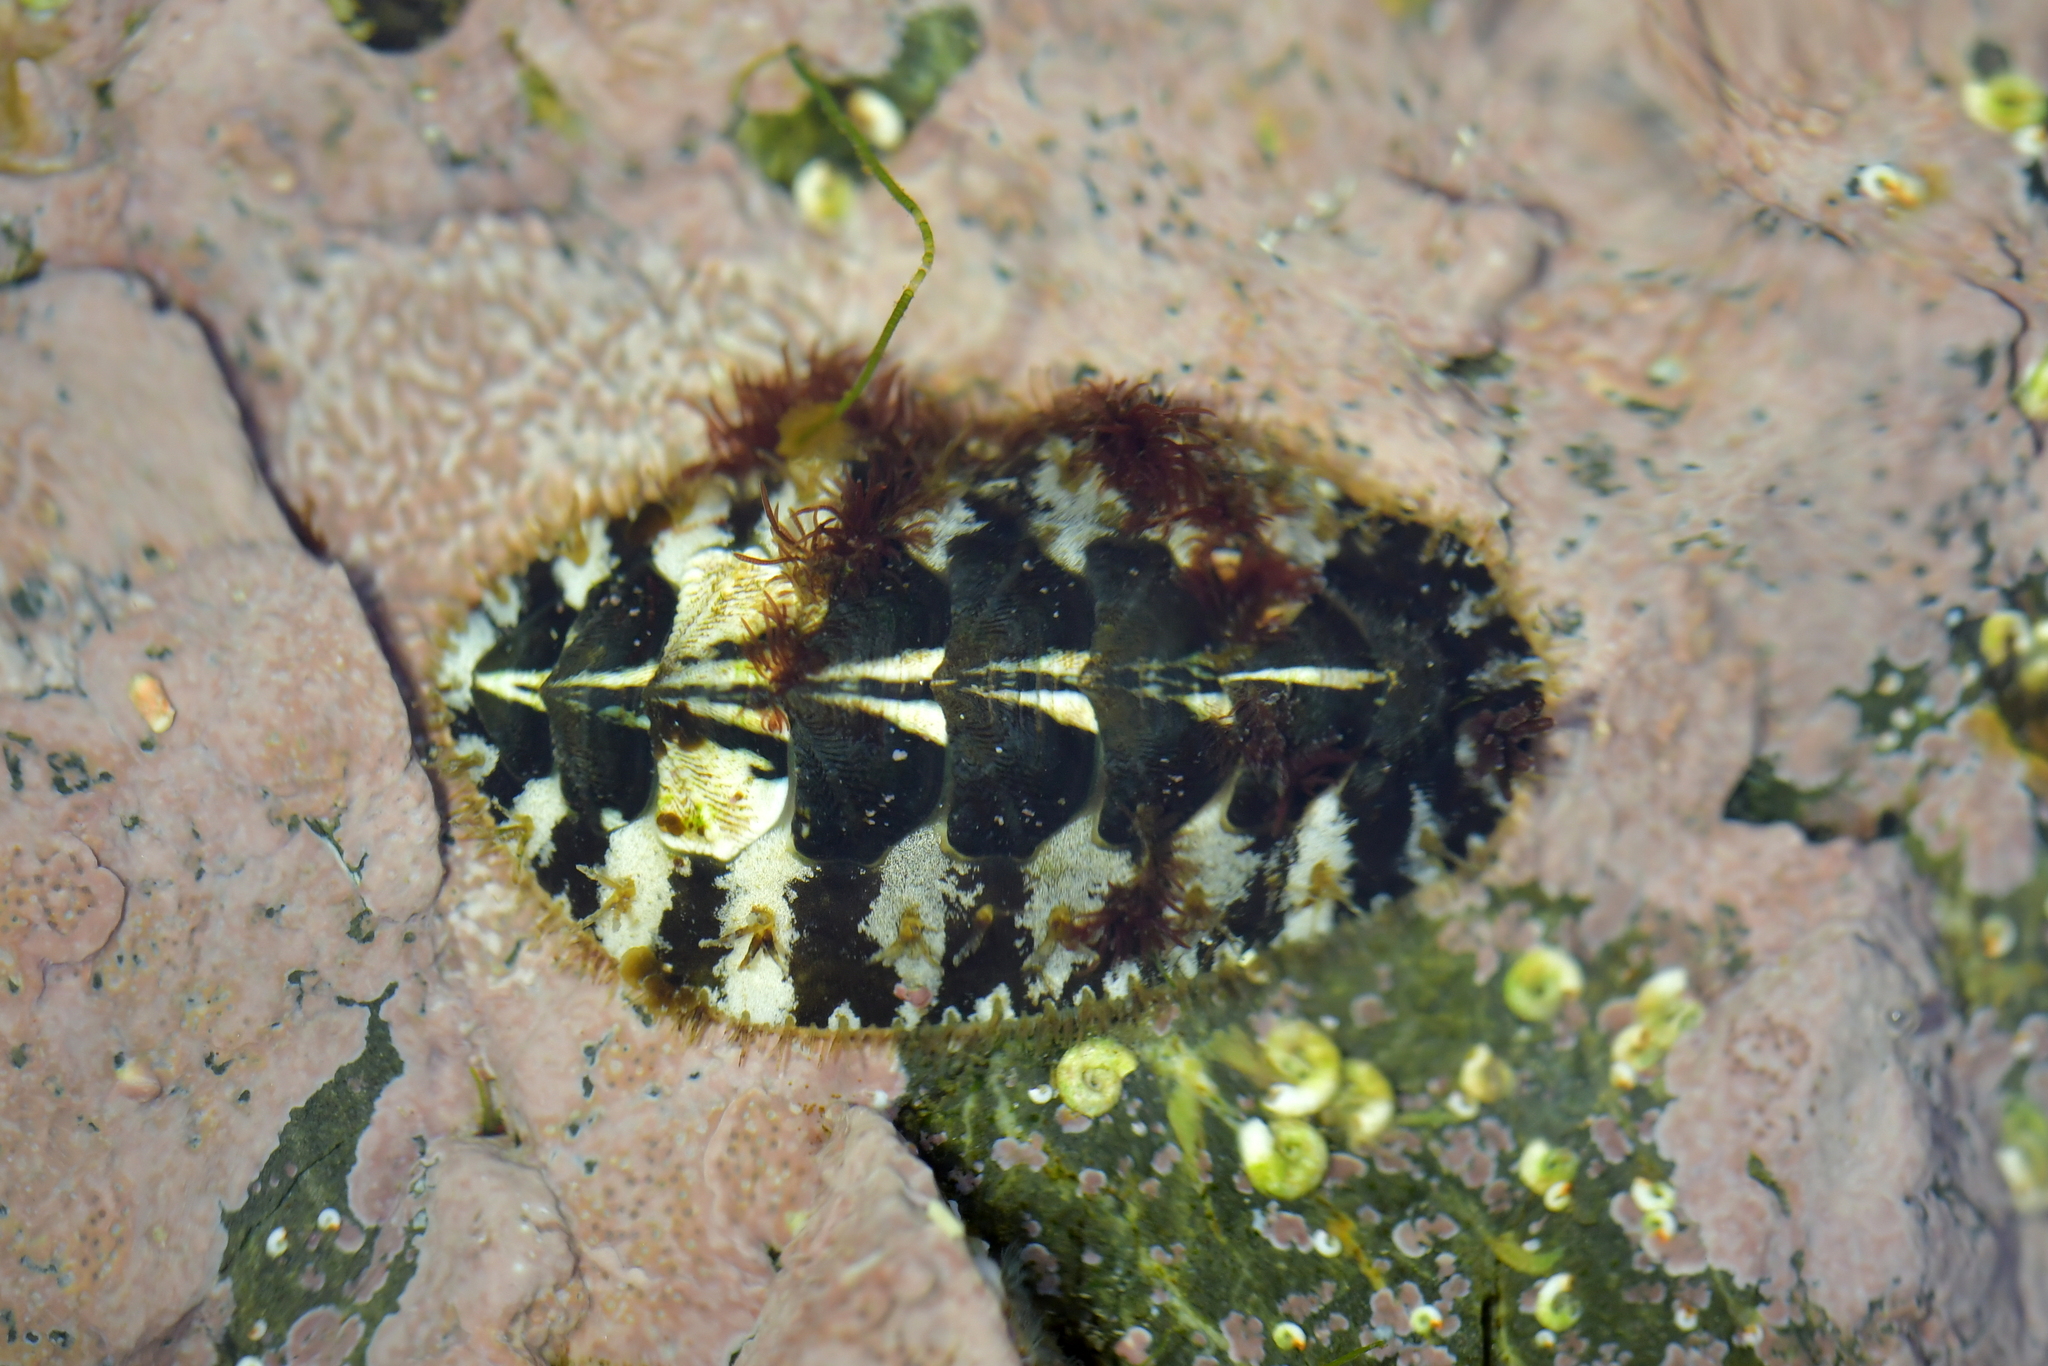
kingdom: Animalia
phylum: Mollusca
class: Polyplacophora
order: Chitonida
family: Mopaliidae
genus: Plaxiphora
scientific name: Plaxiphora caelata
